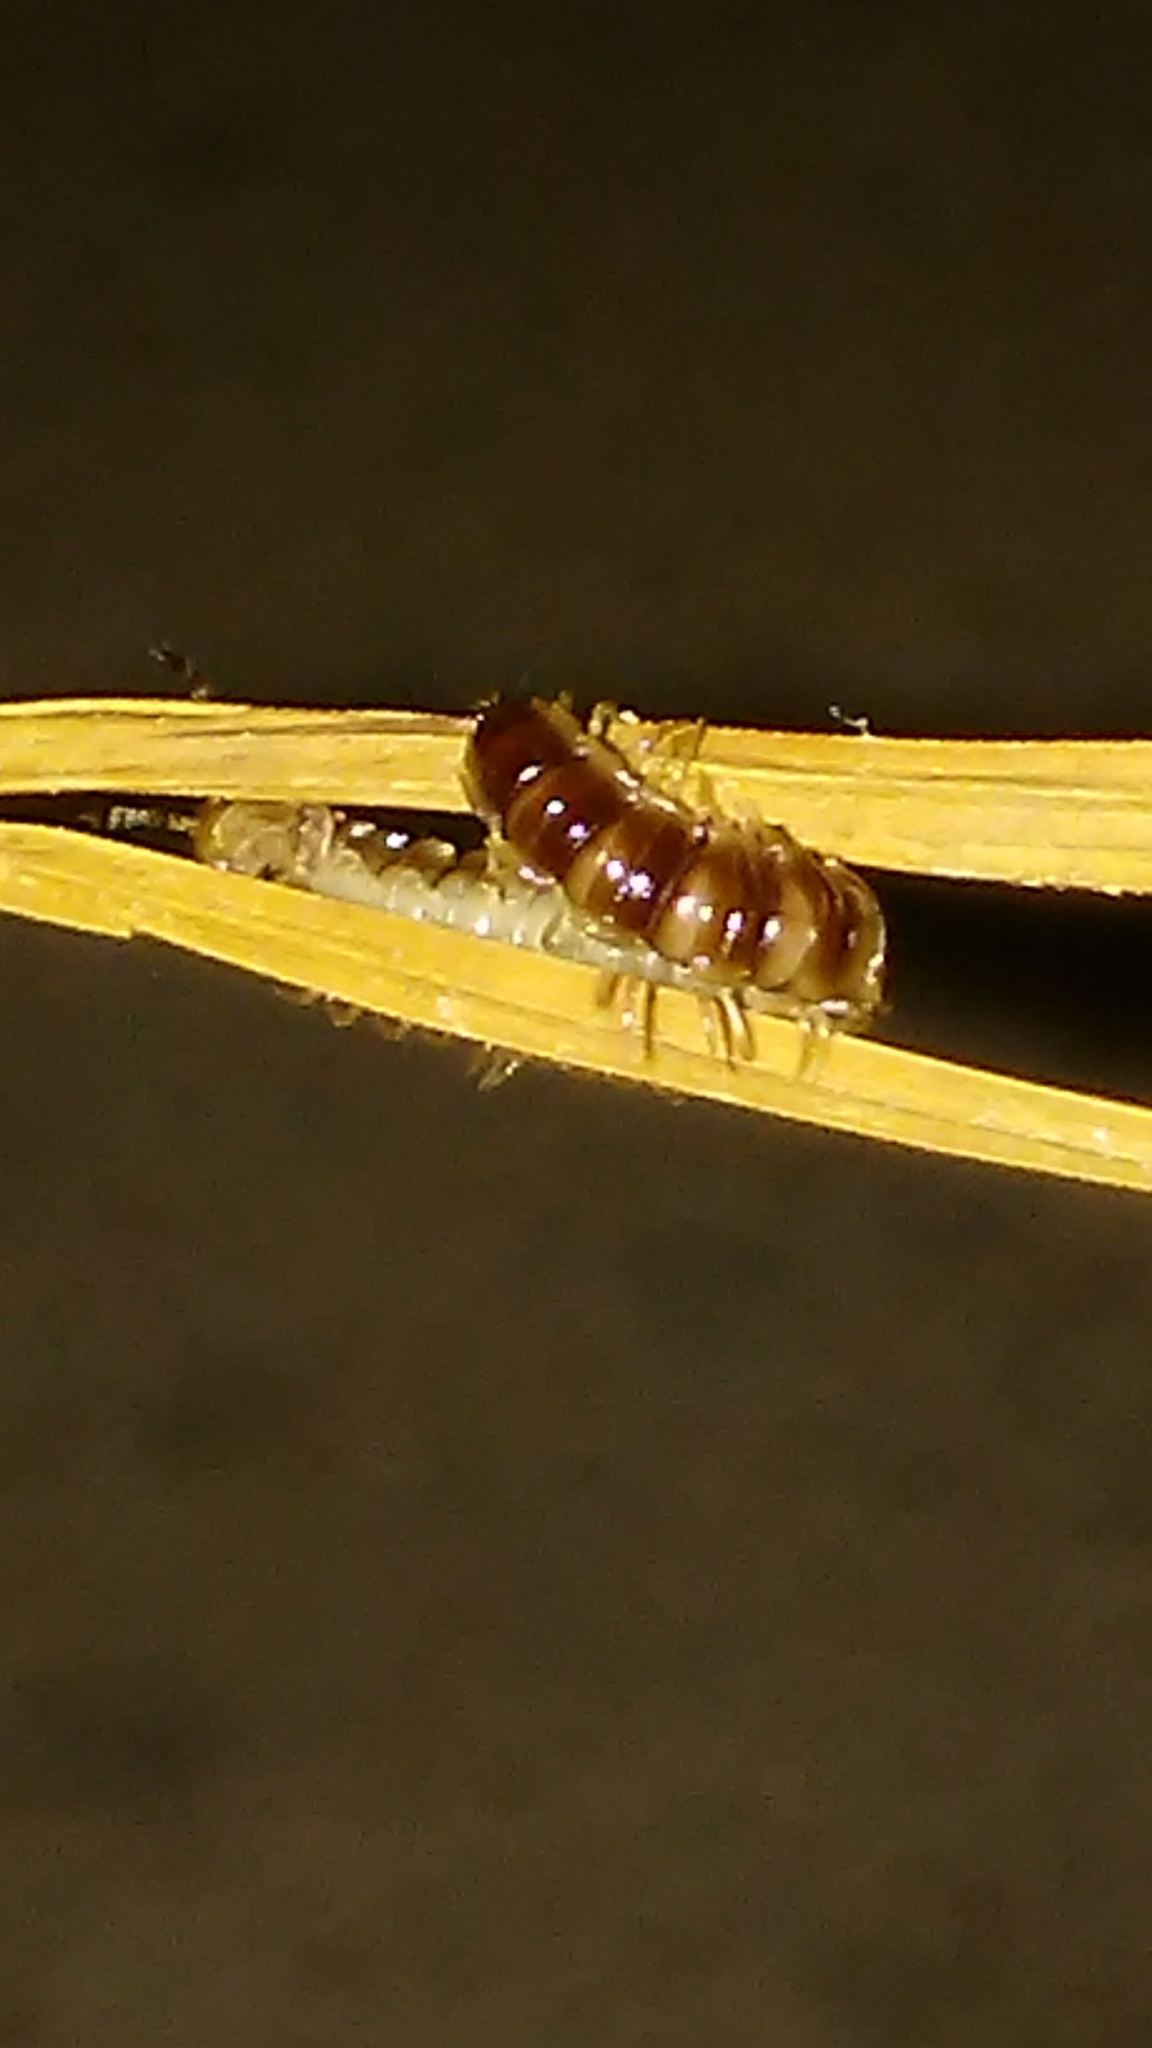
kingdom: Animalia
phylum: Arthropoda
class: Diplopoda
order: Polydesmida
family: Paradoxosomatidae
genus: Oxidus
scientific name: Oxidus gracilis
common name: Greenhouse millipede
